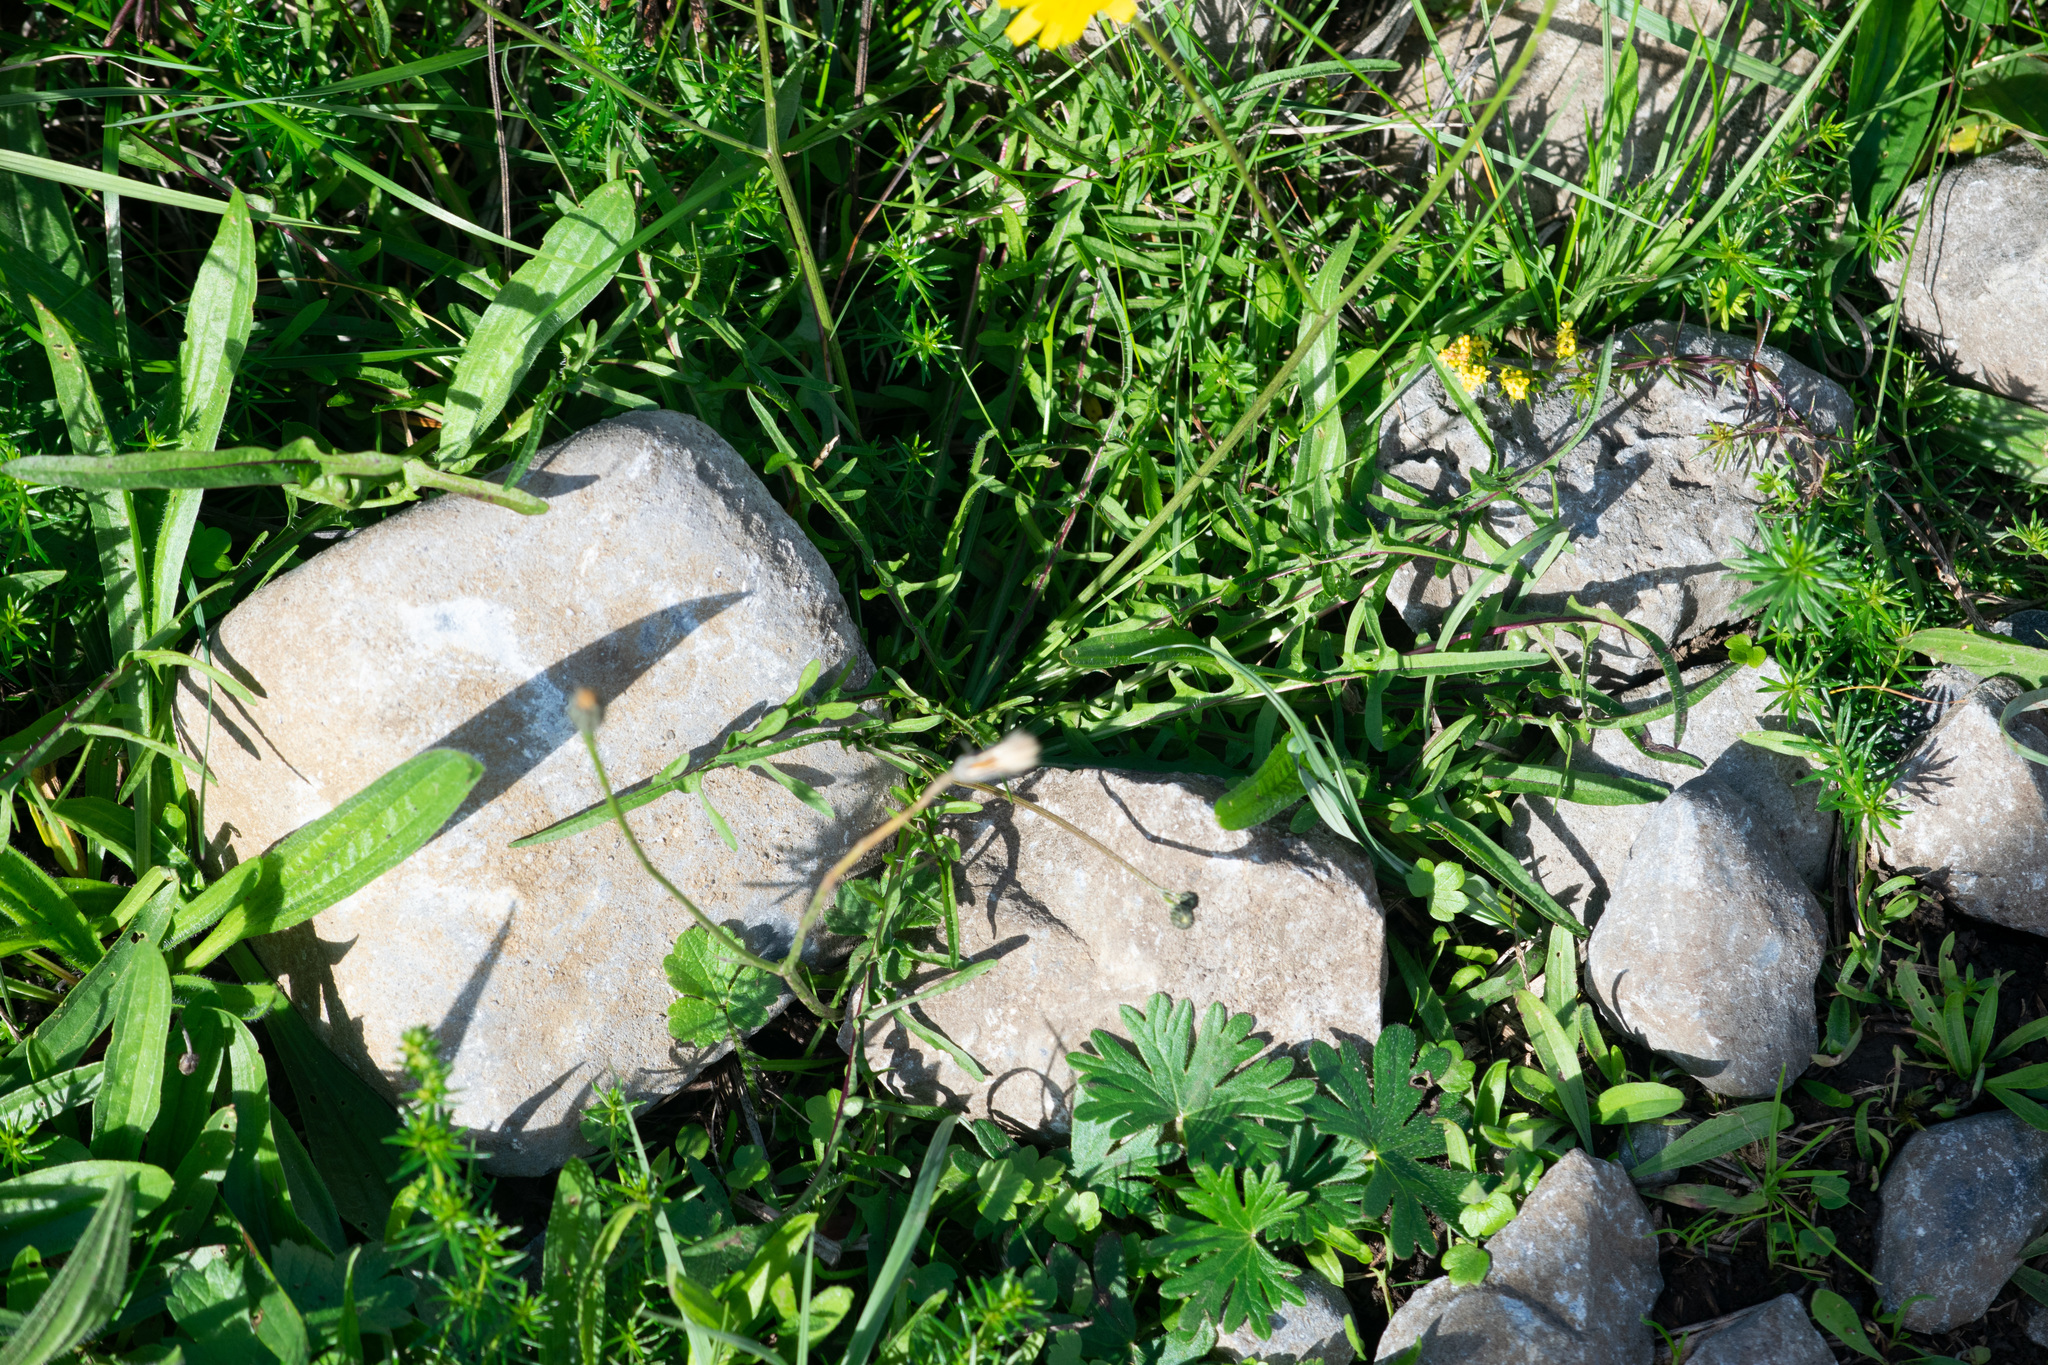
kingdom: Plantae
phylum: Tracheophyta
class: Magnoliopsida
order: Asterales
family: Asteraceae
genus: Scorzoneroides
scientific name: Scorzoneroides autumnalis
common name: Autumn hawkbit
